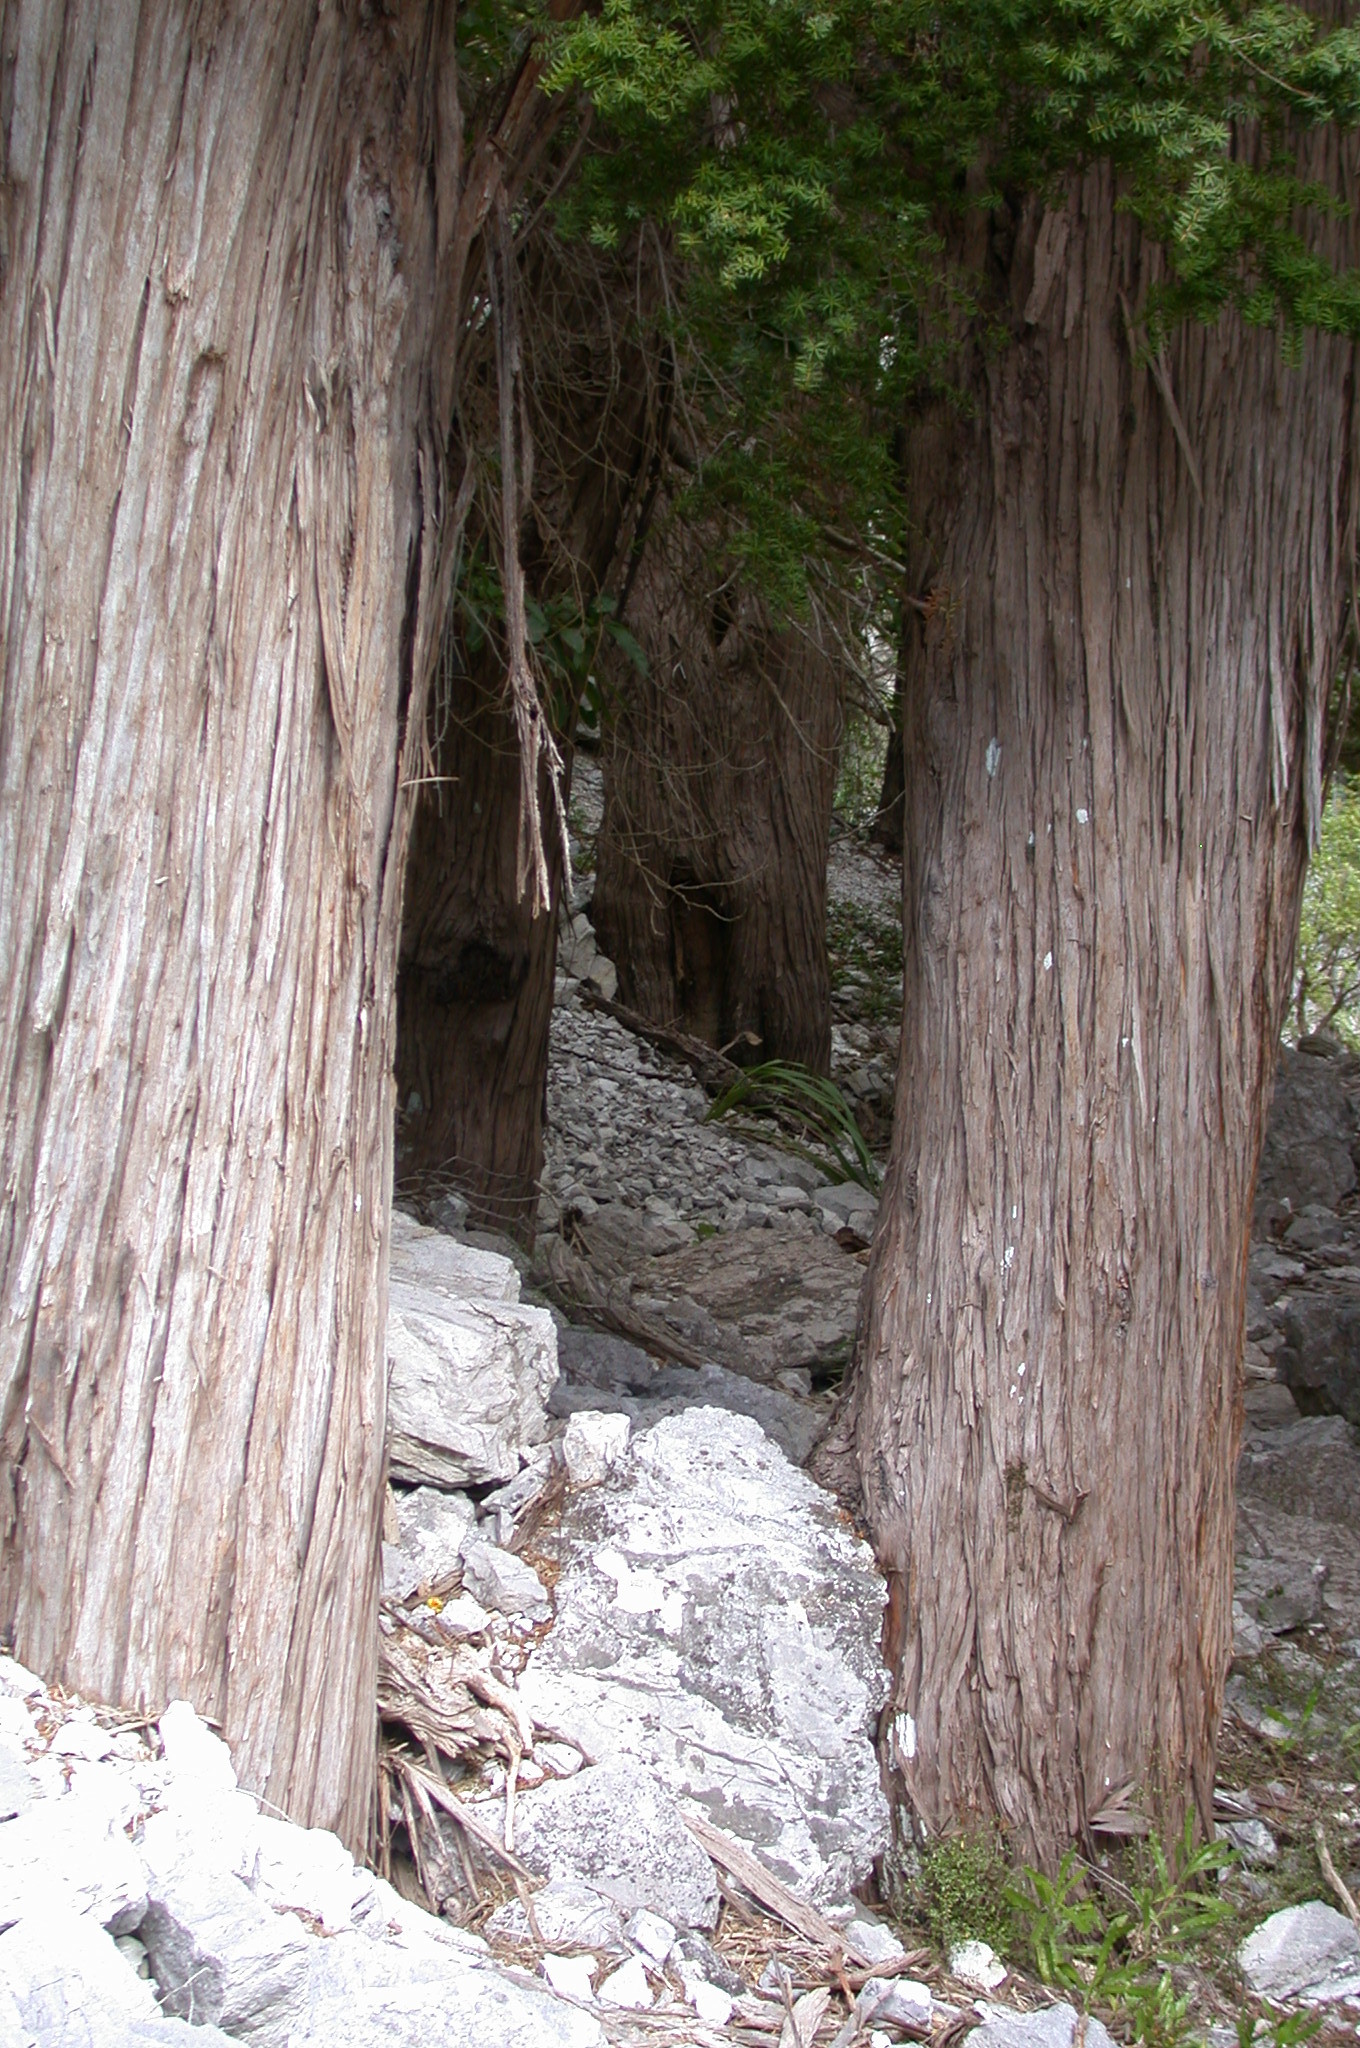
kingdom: Plantae
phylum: Tracheophyta
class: Pinopsida
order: Pinales
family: Podocarpaceae
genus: Podocarpus
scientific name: Podocarpus totara
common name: Totara
